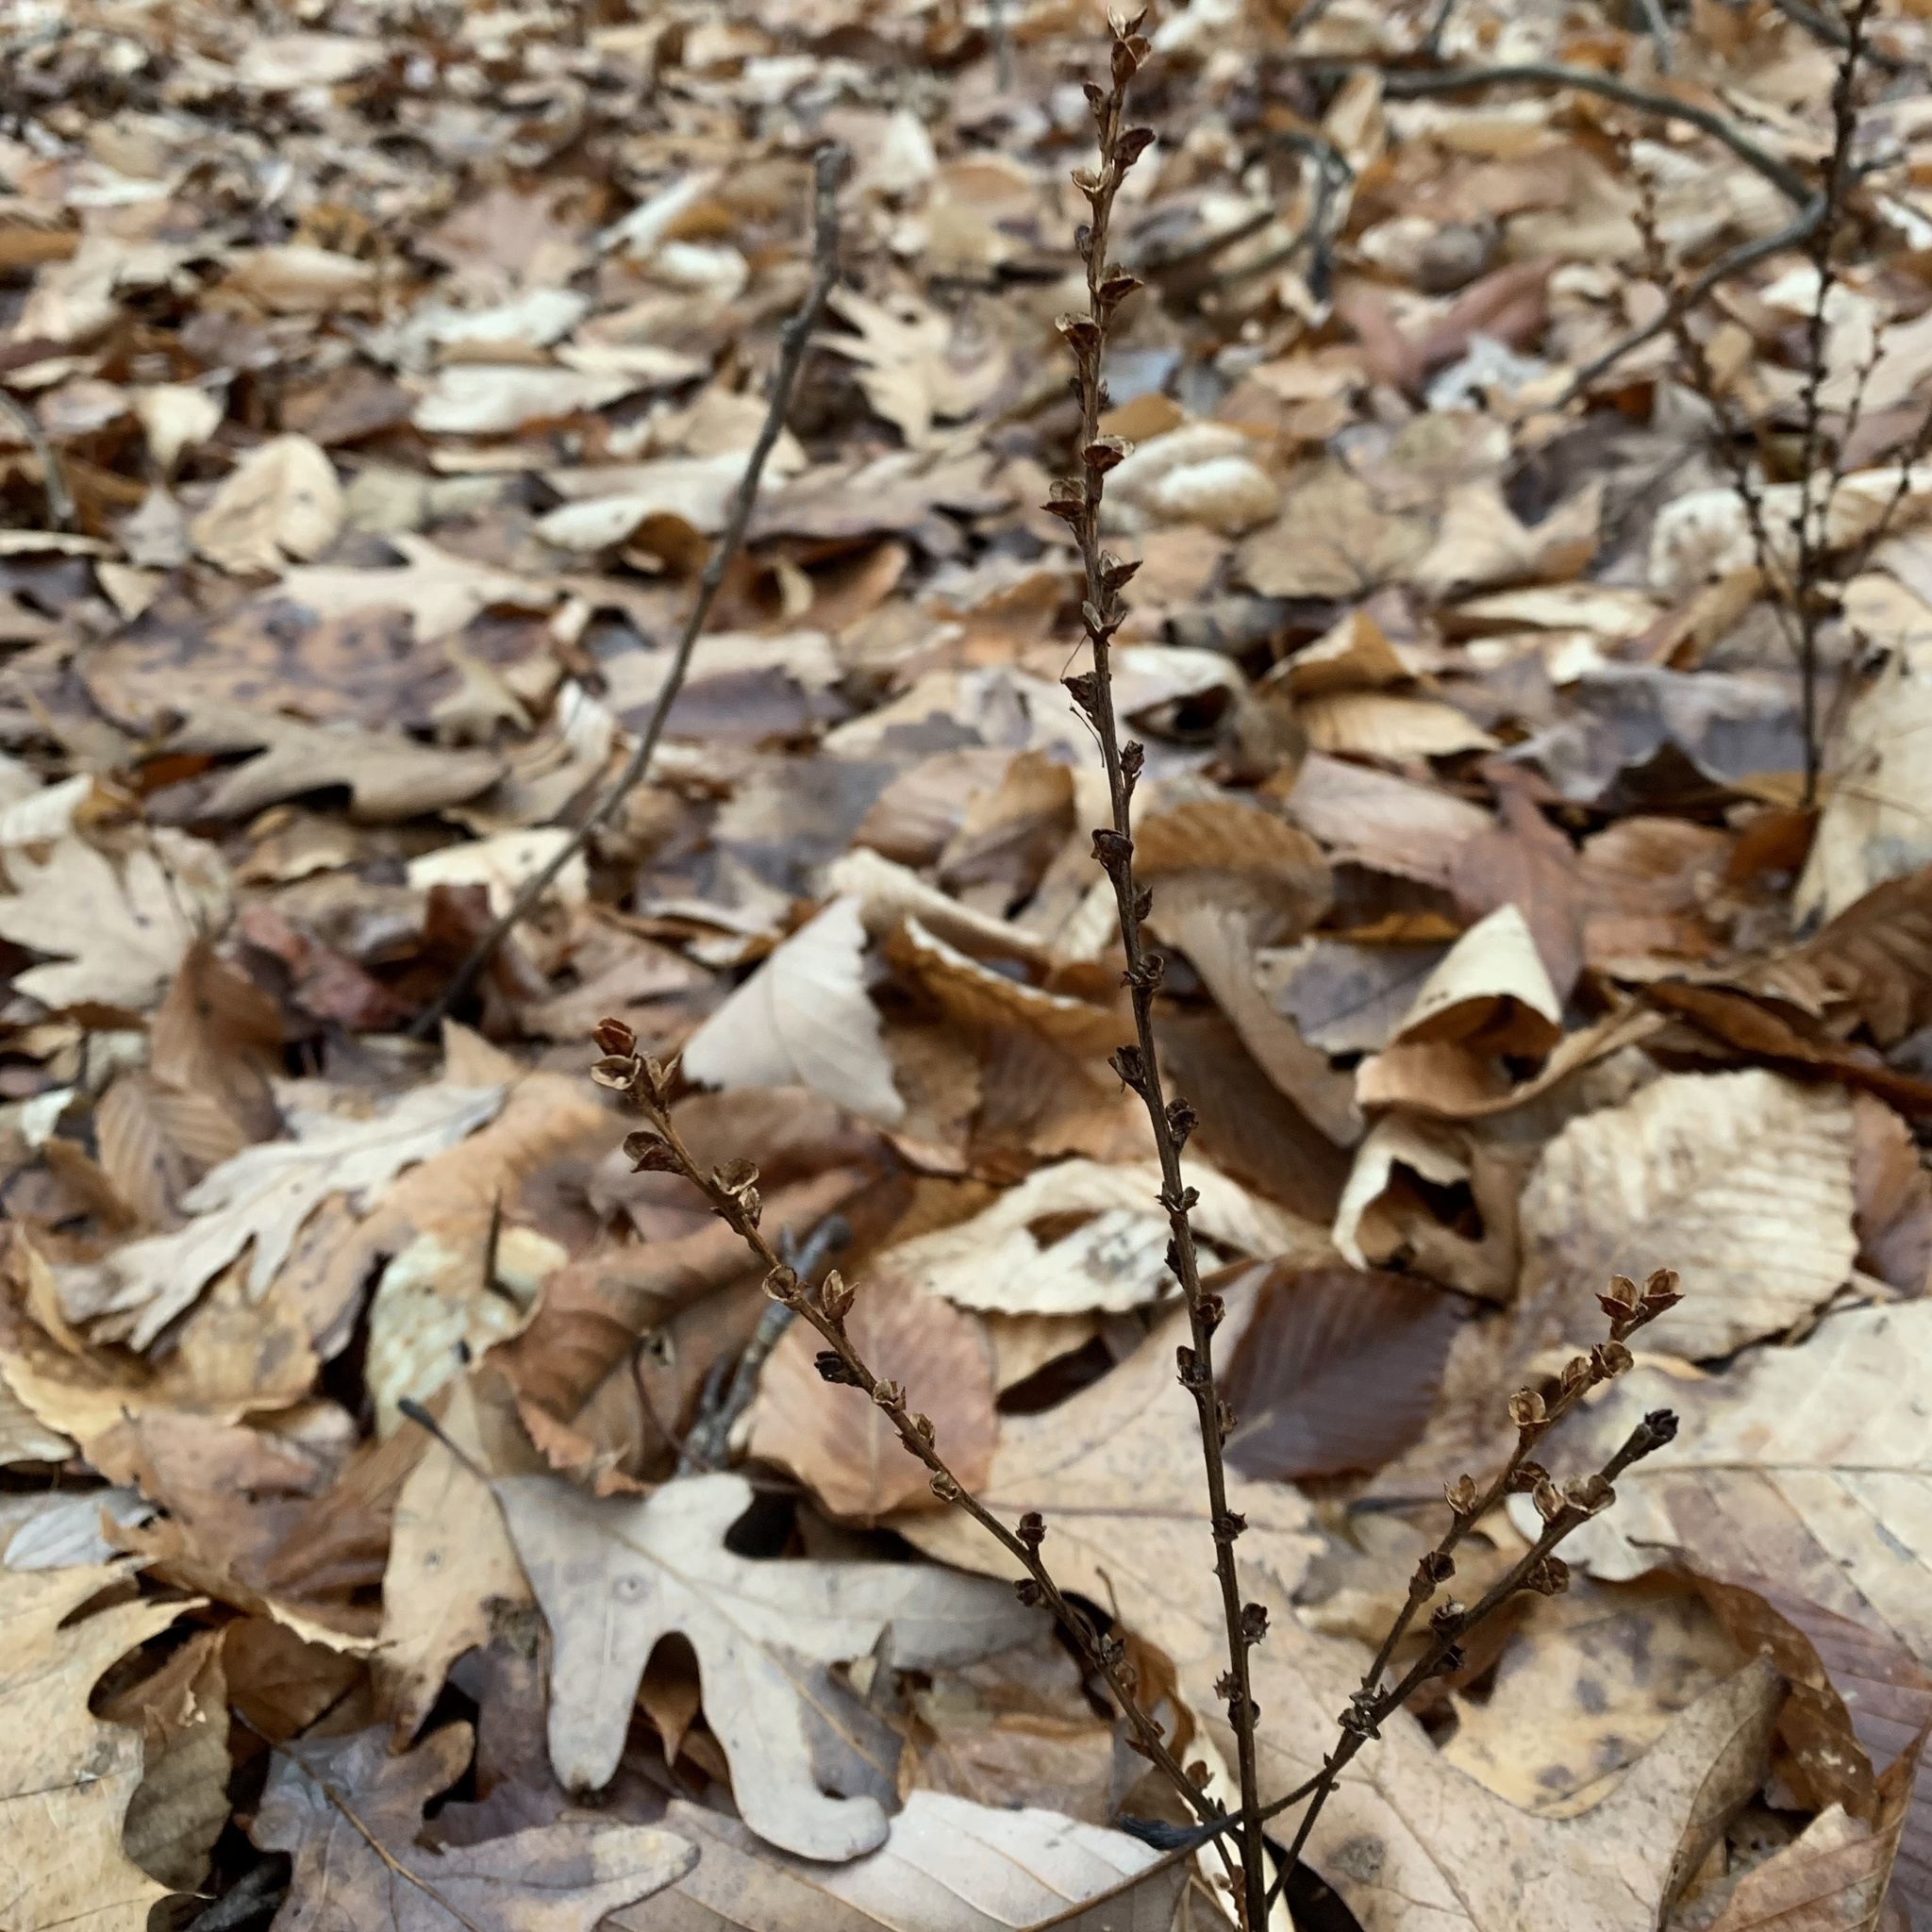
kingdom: Plantae
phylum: Tracheophyta
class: Magnoliopsida
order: Lamiales
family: Orobanchaceae
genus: Epifagus
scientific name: Epifagus virginiana
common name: Beechdrops
